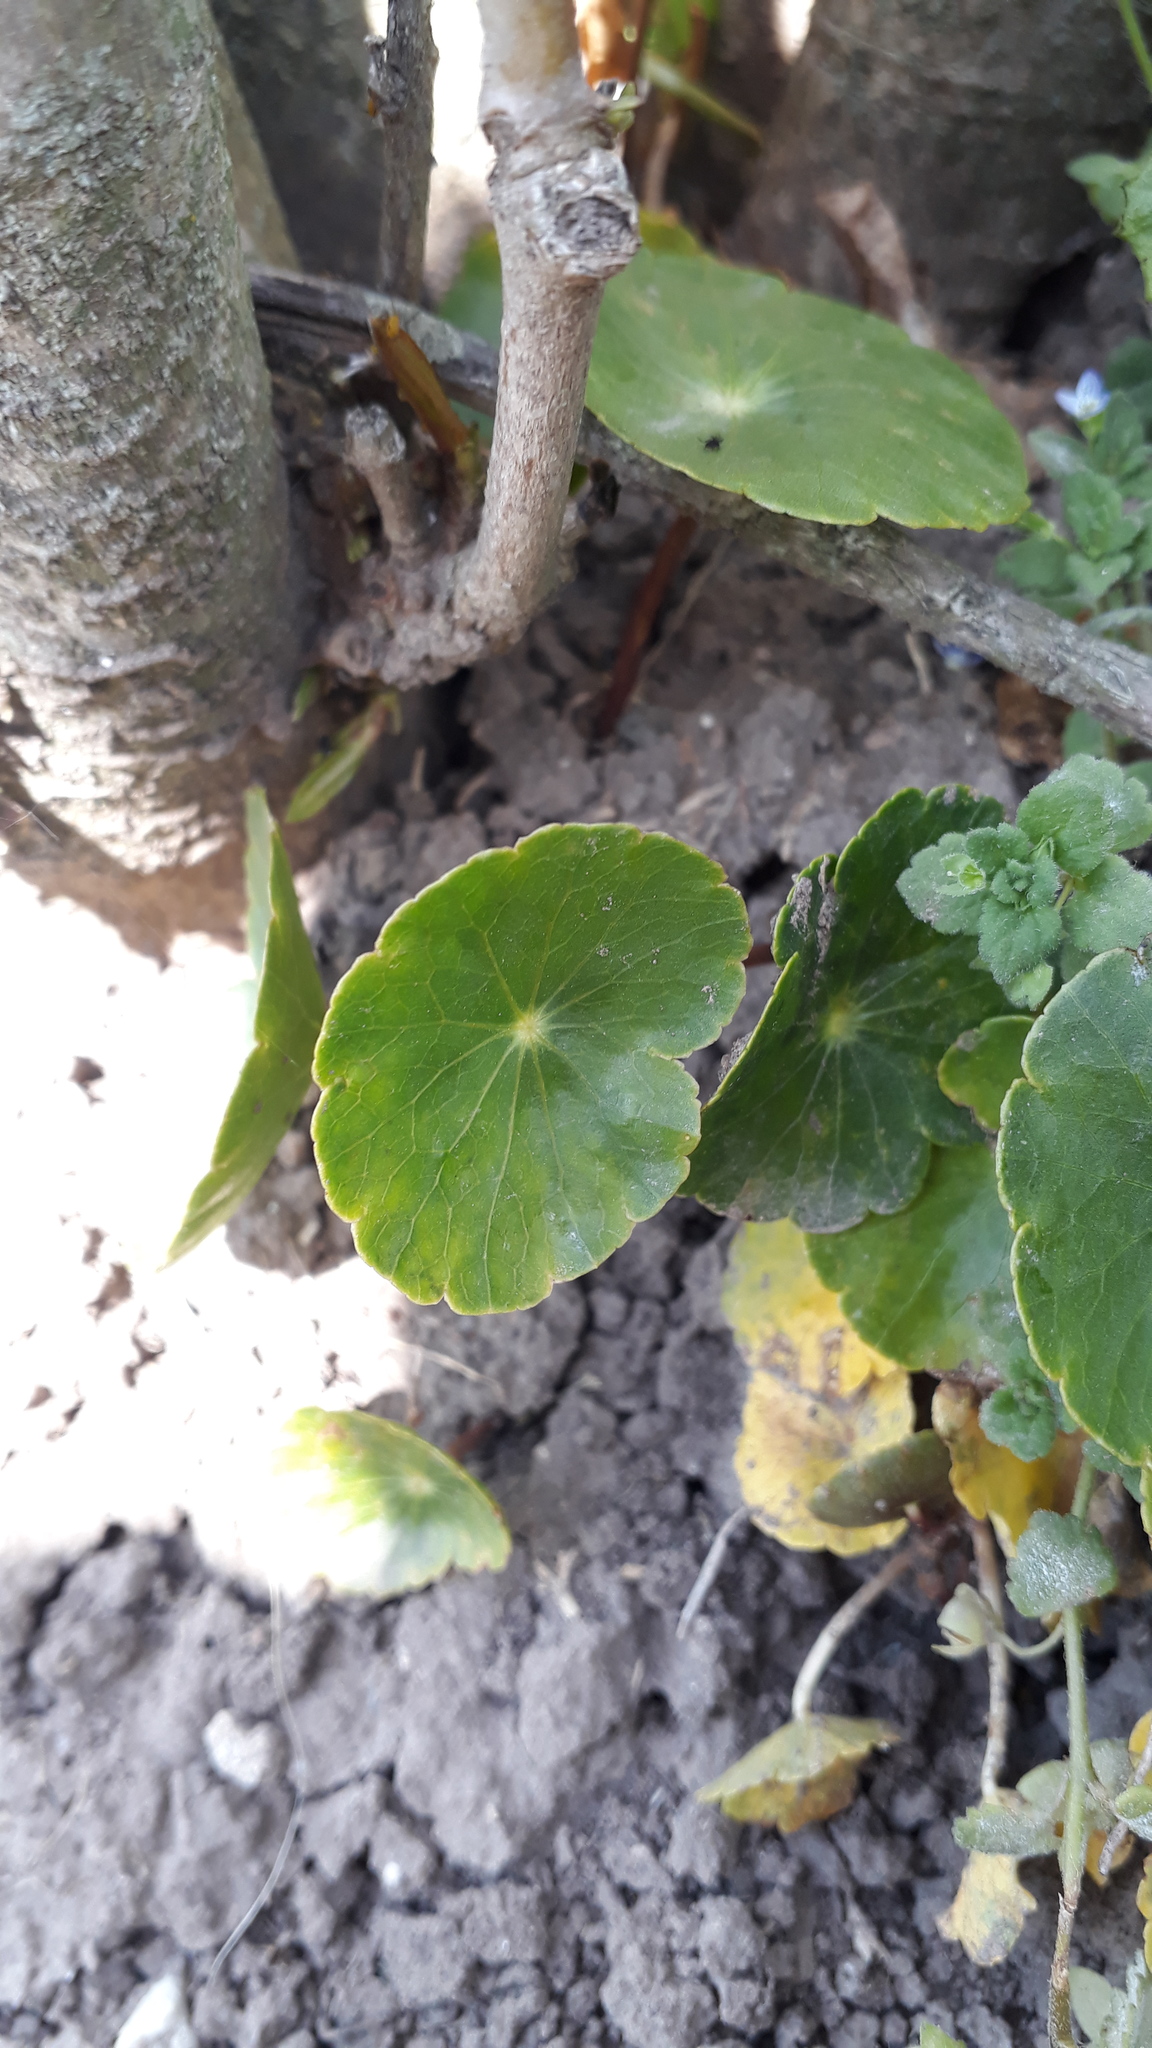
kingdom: Plantae
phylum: Tracheophyta
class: Magnoliopsida
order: Apiales
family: Araliaceae
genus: Hydrocotyle
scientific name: Hydrocotyle bonariensis
